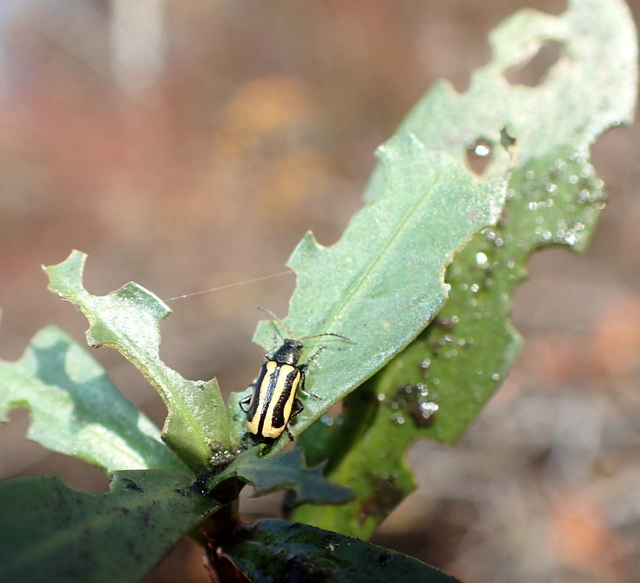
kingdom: Animalia
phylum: Arthropoda
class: Insecta
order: Coleoptera
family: Chrysomelidae
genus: Agasicles
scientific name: Agasicles hygrophila
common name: Alligatorweed flea beetle
